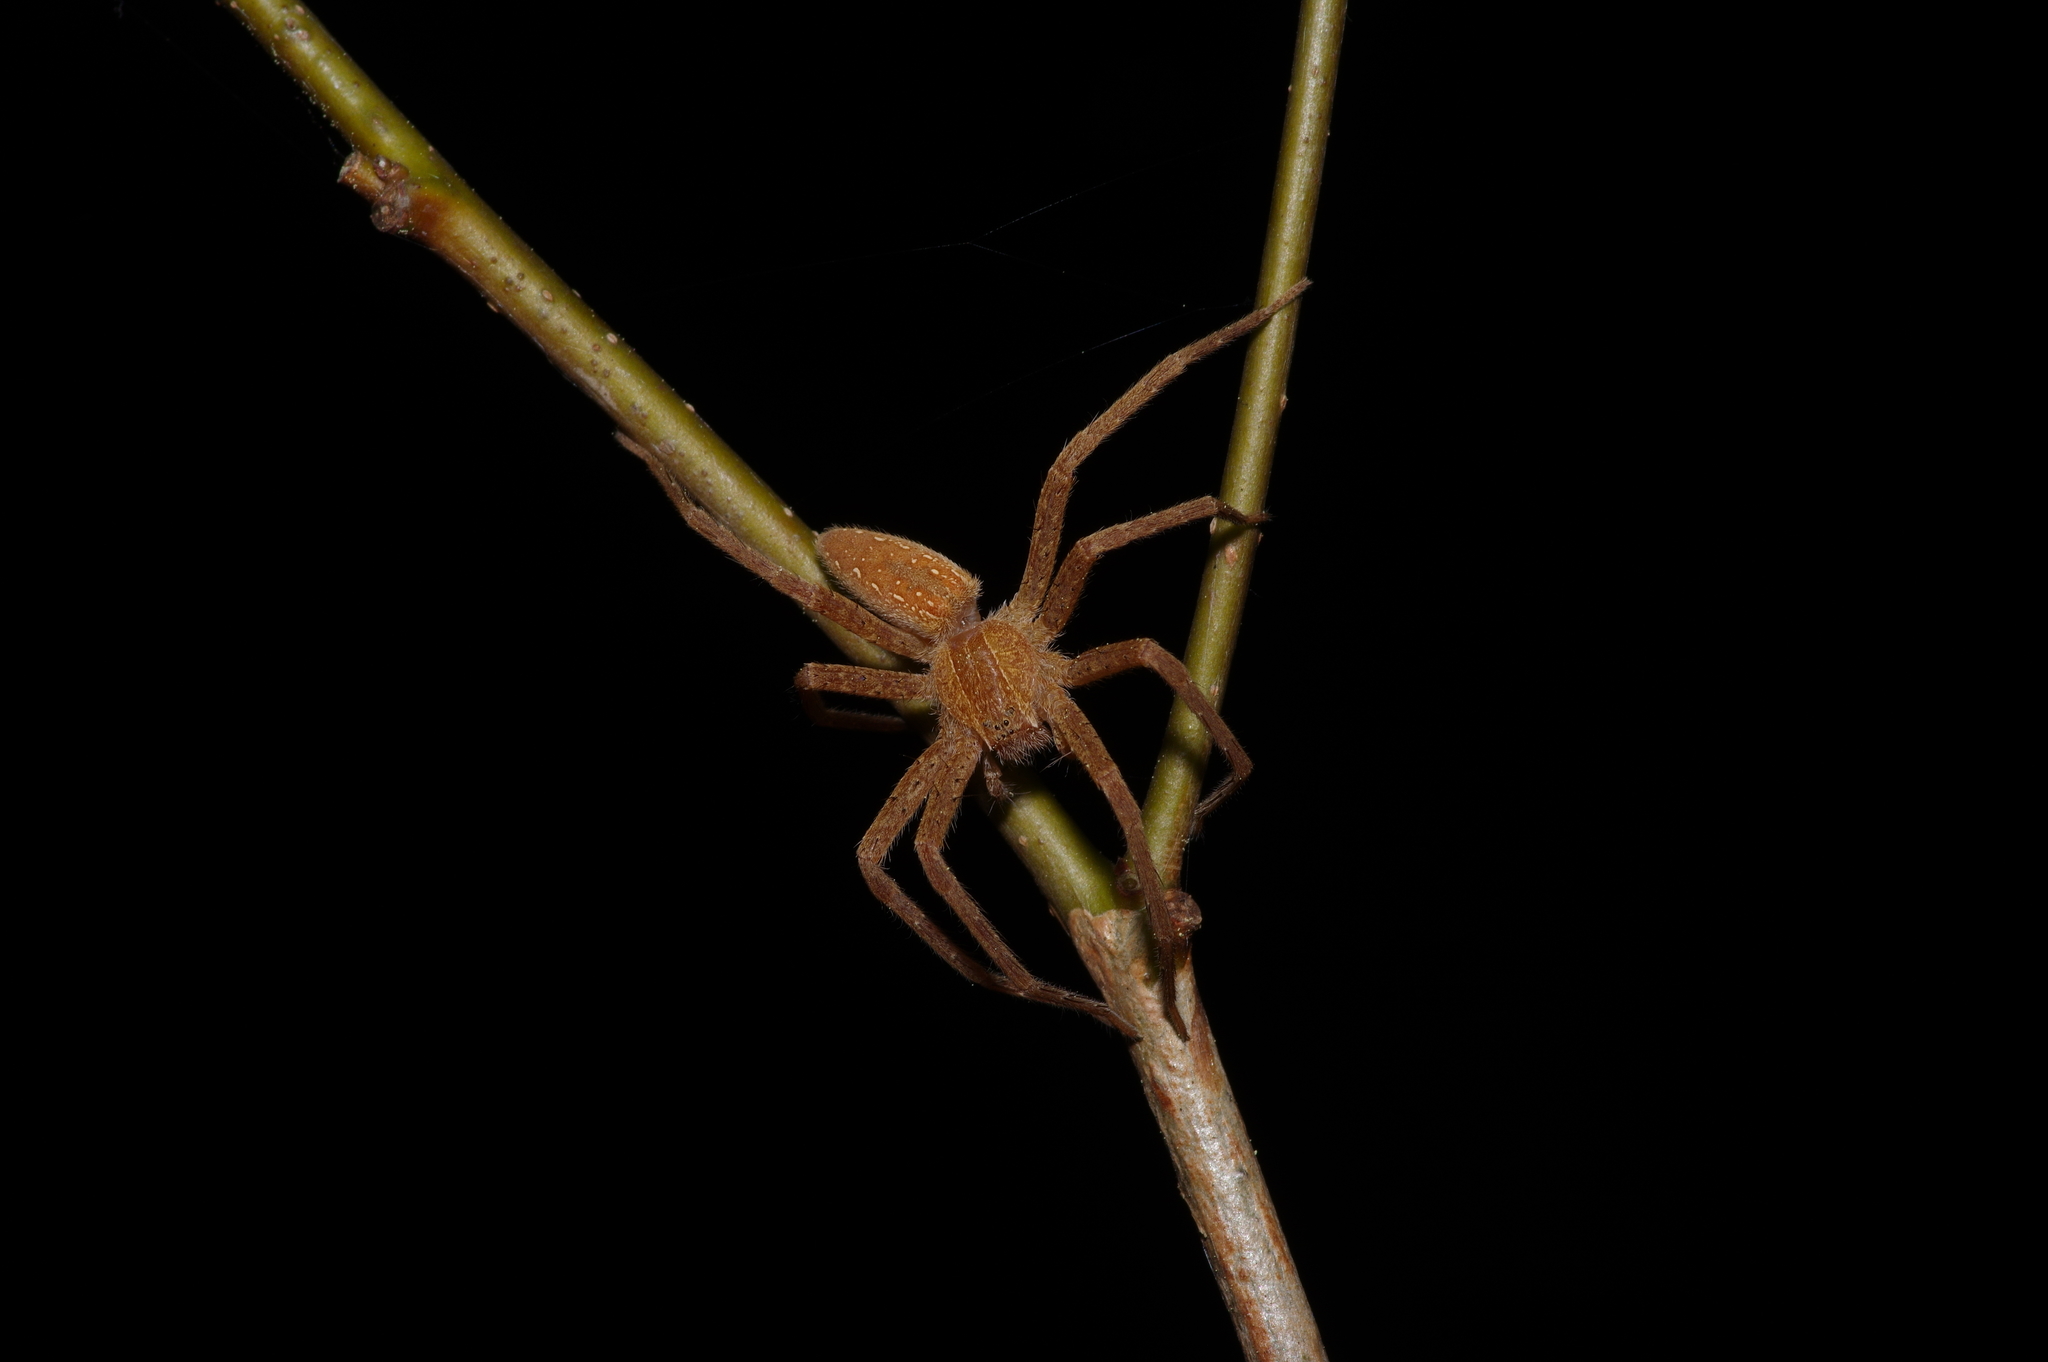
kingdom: Animalia
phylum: Arthropoda
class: Arachnida
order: Araneae
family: Pisauridae
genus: Pisaurina
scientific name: Pisaurina mira
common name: American nursery web spider
